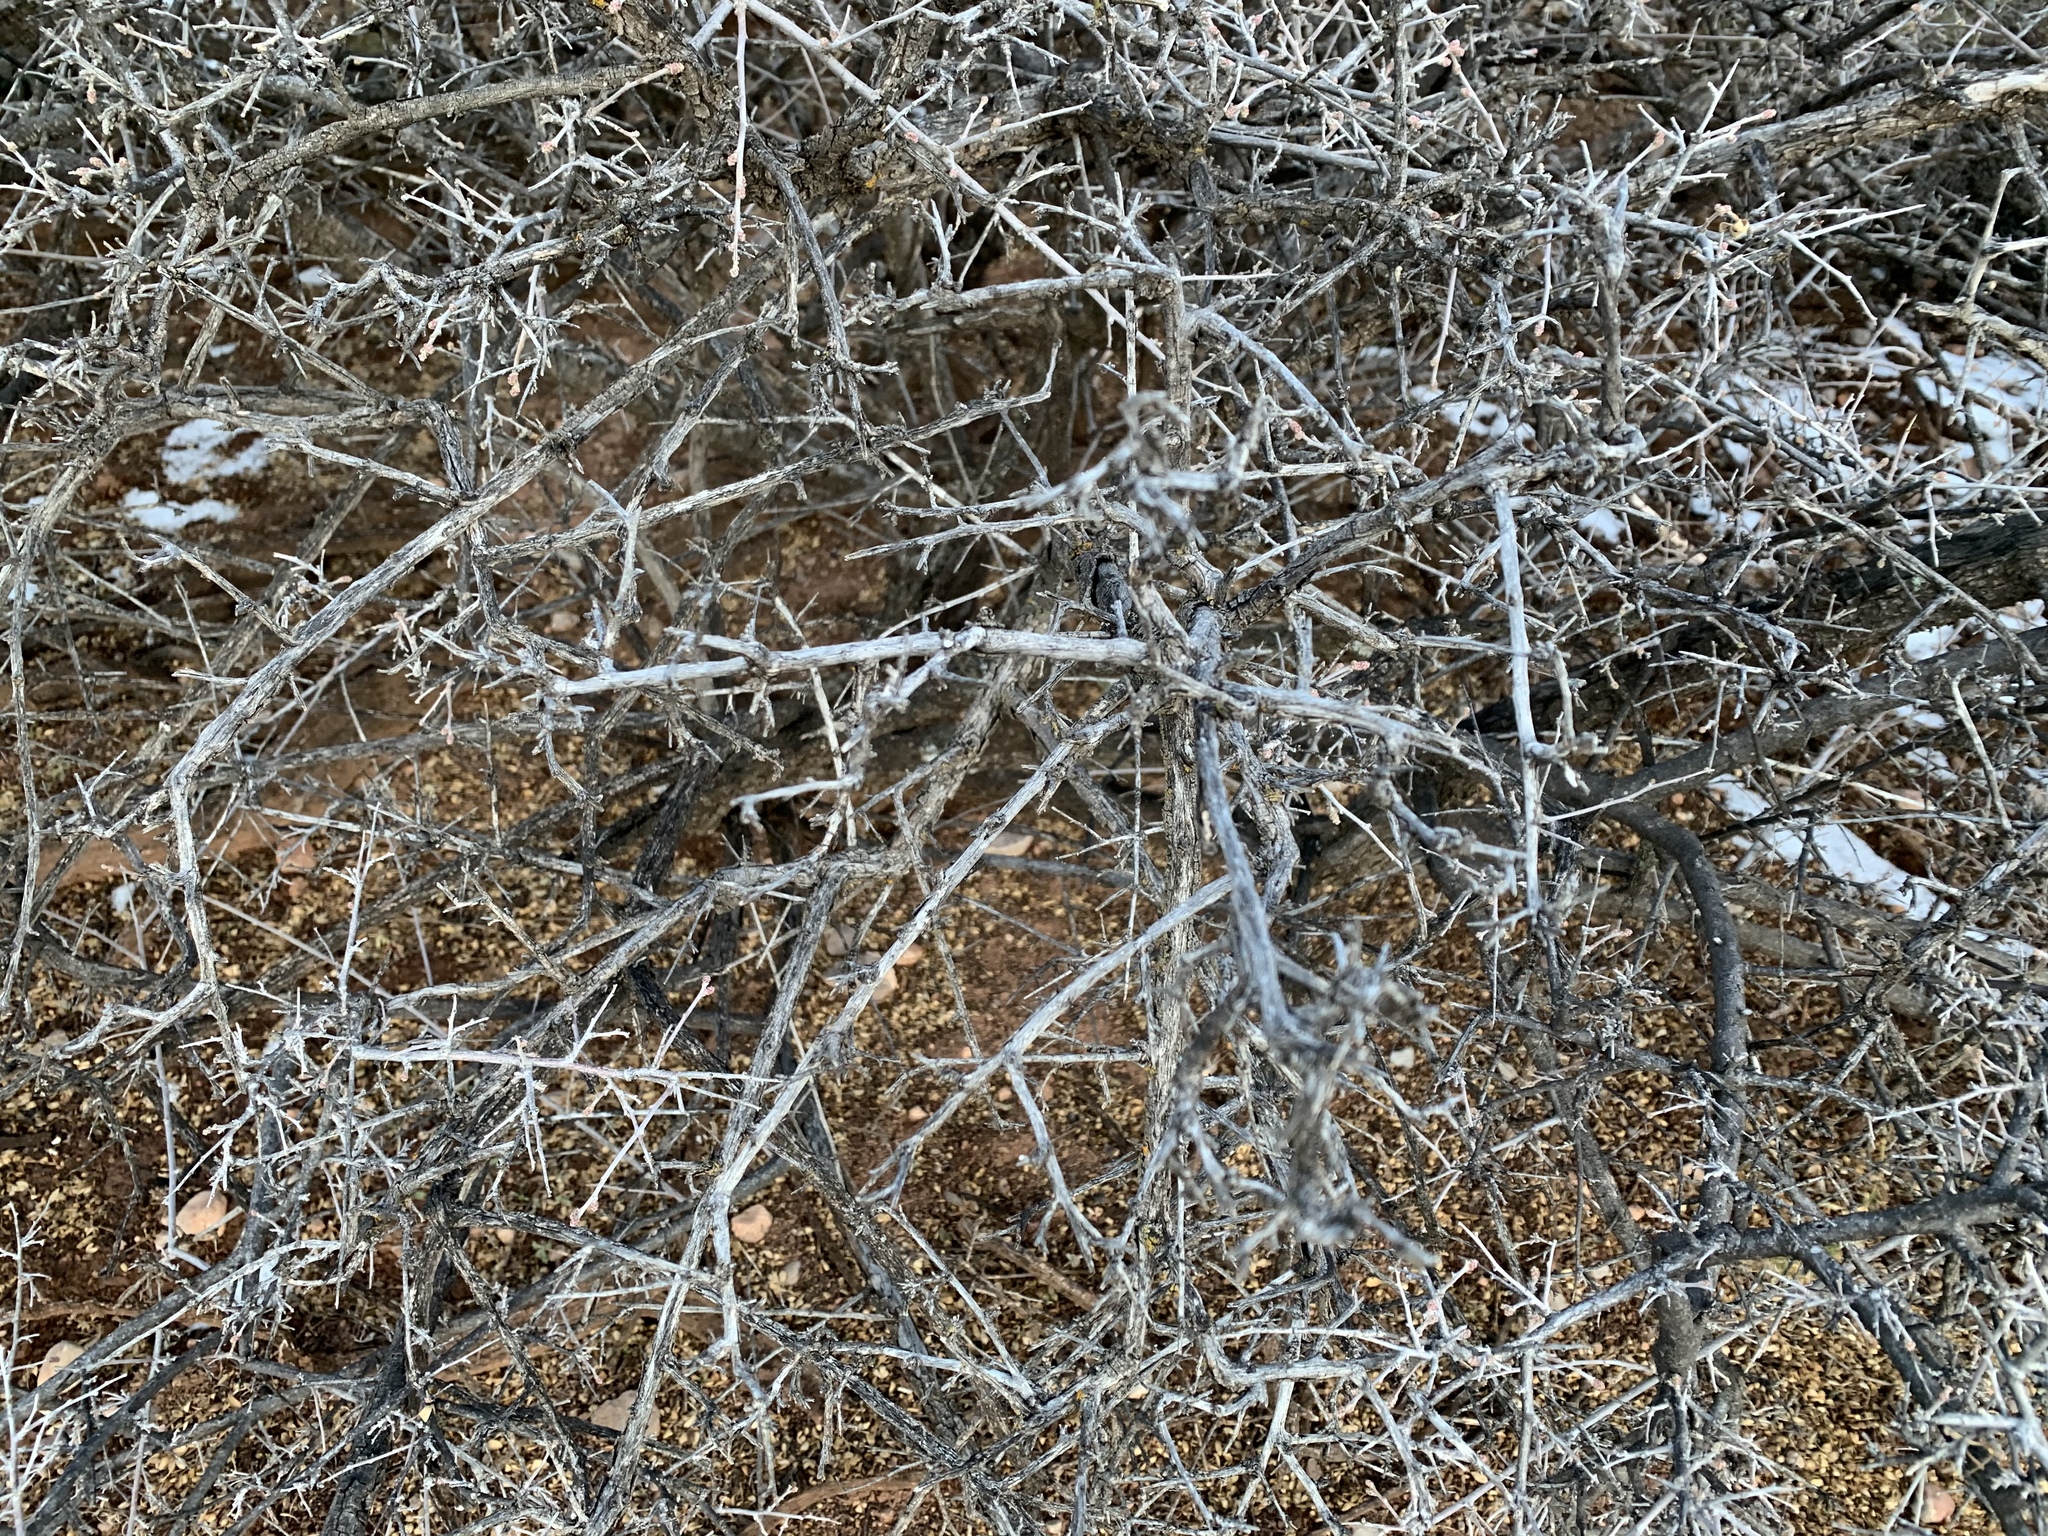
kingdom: Plantae
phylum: Tracheophyta
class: Magnoliopsida
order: Sapindales
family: Anacardiaceae
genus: Rhus
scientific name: Rhus microphylla
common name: Desert sumac
